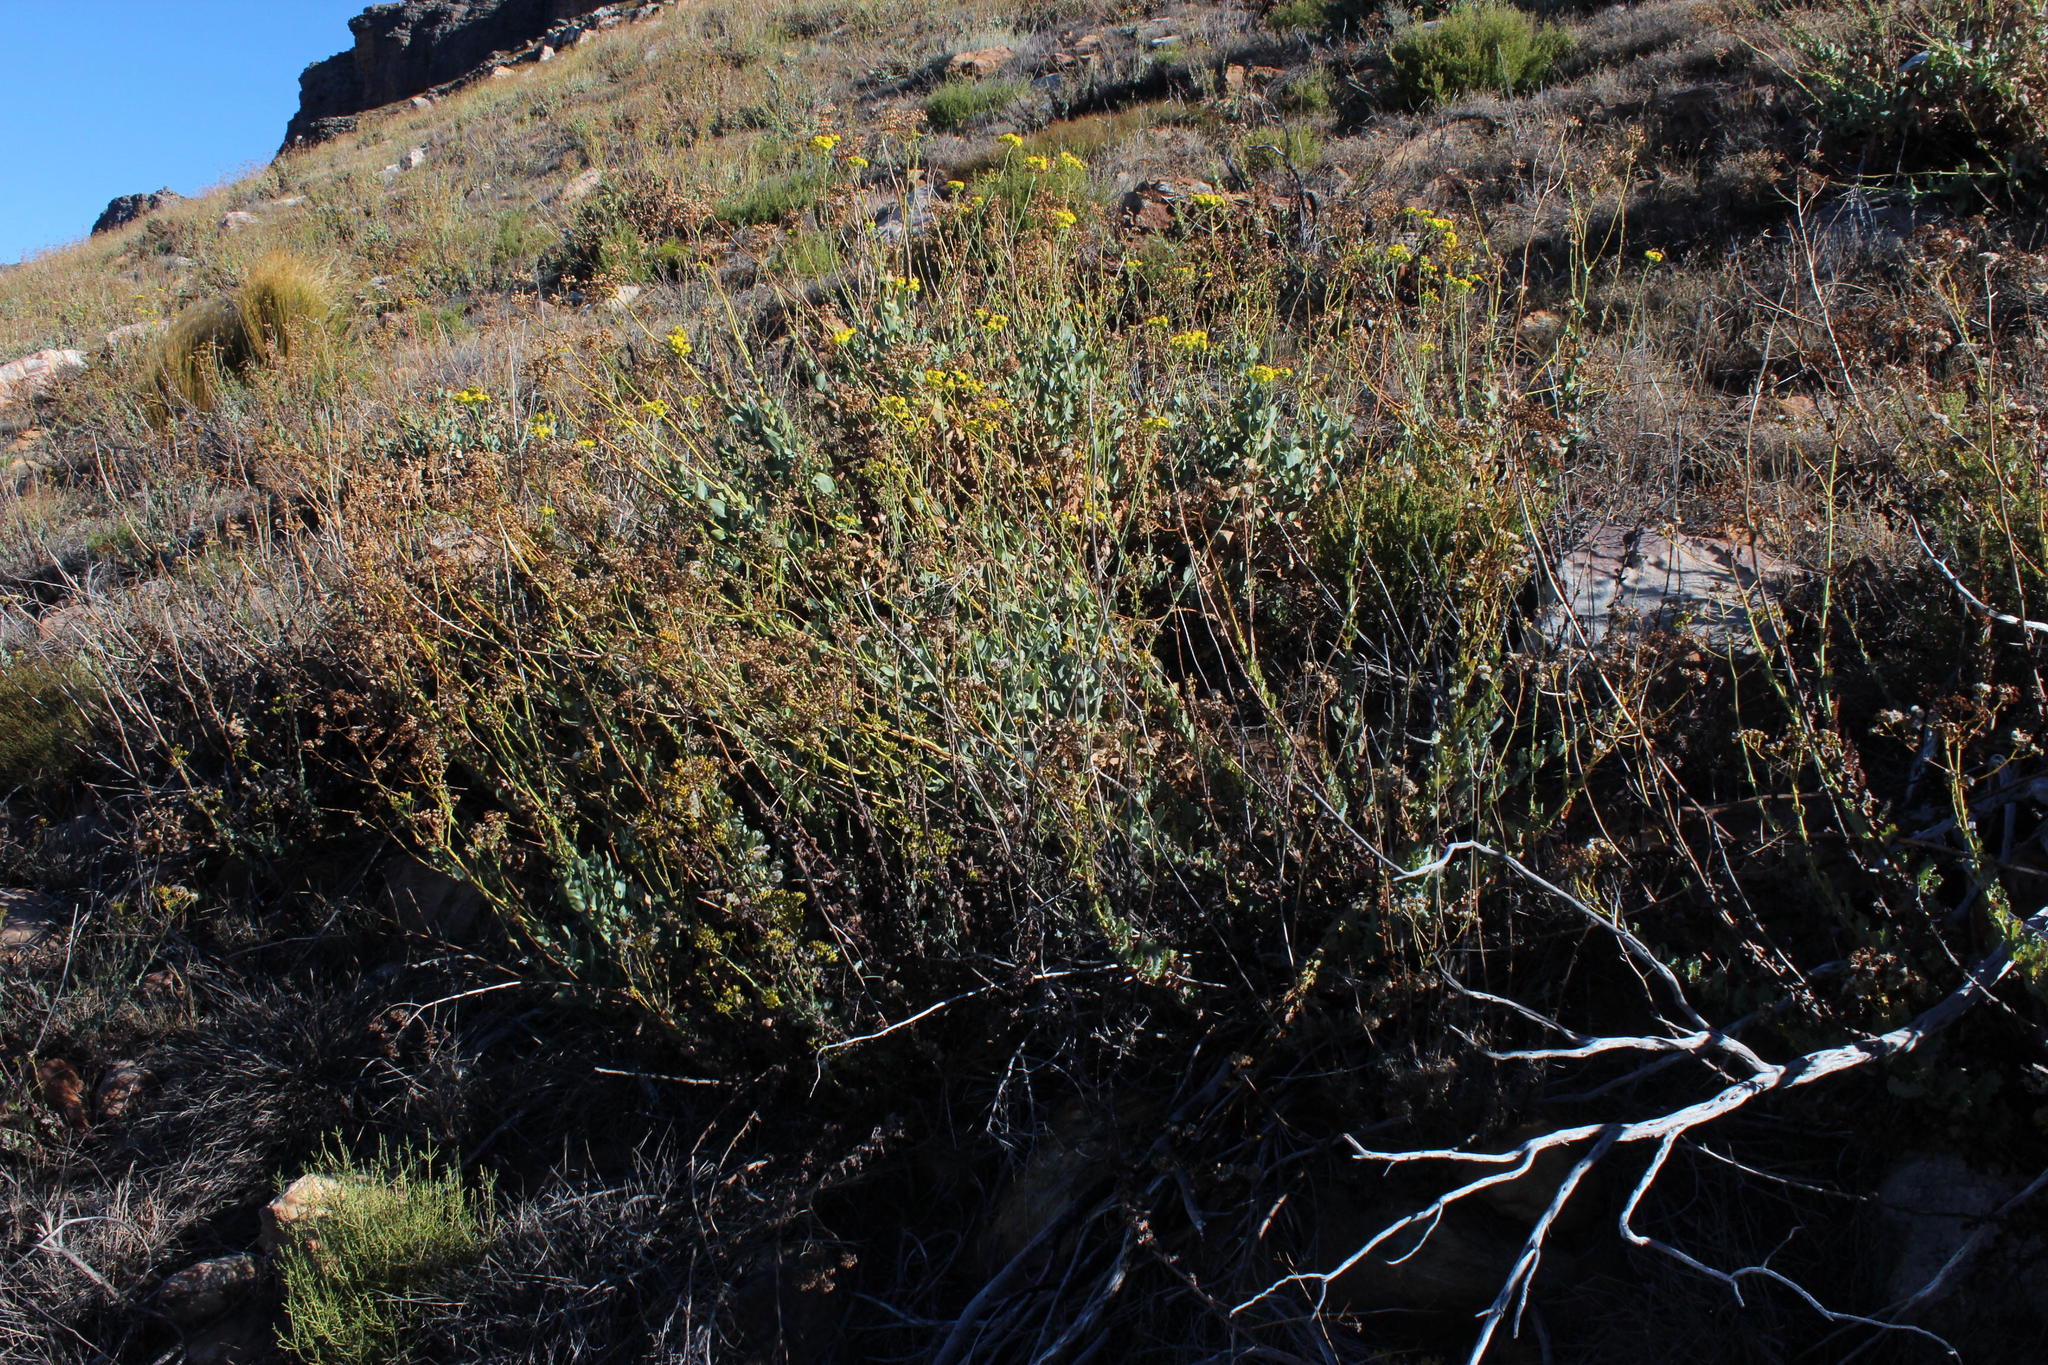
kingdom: Plantae
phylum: Tracheophyta
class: Magnoliopsida
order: Asterales
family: Asteraceae
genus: Othonna
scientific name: Othonna parviflora
